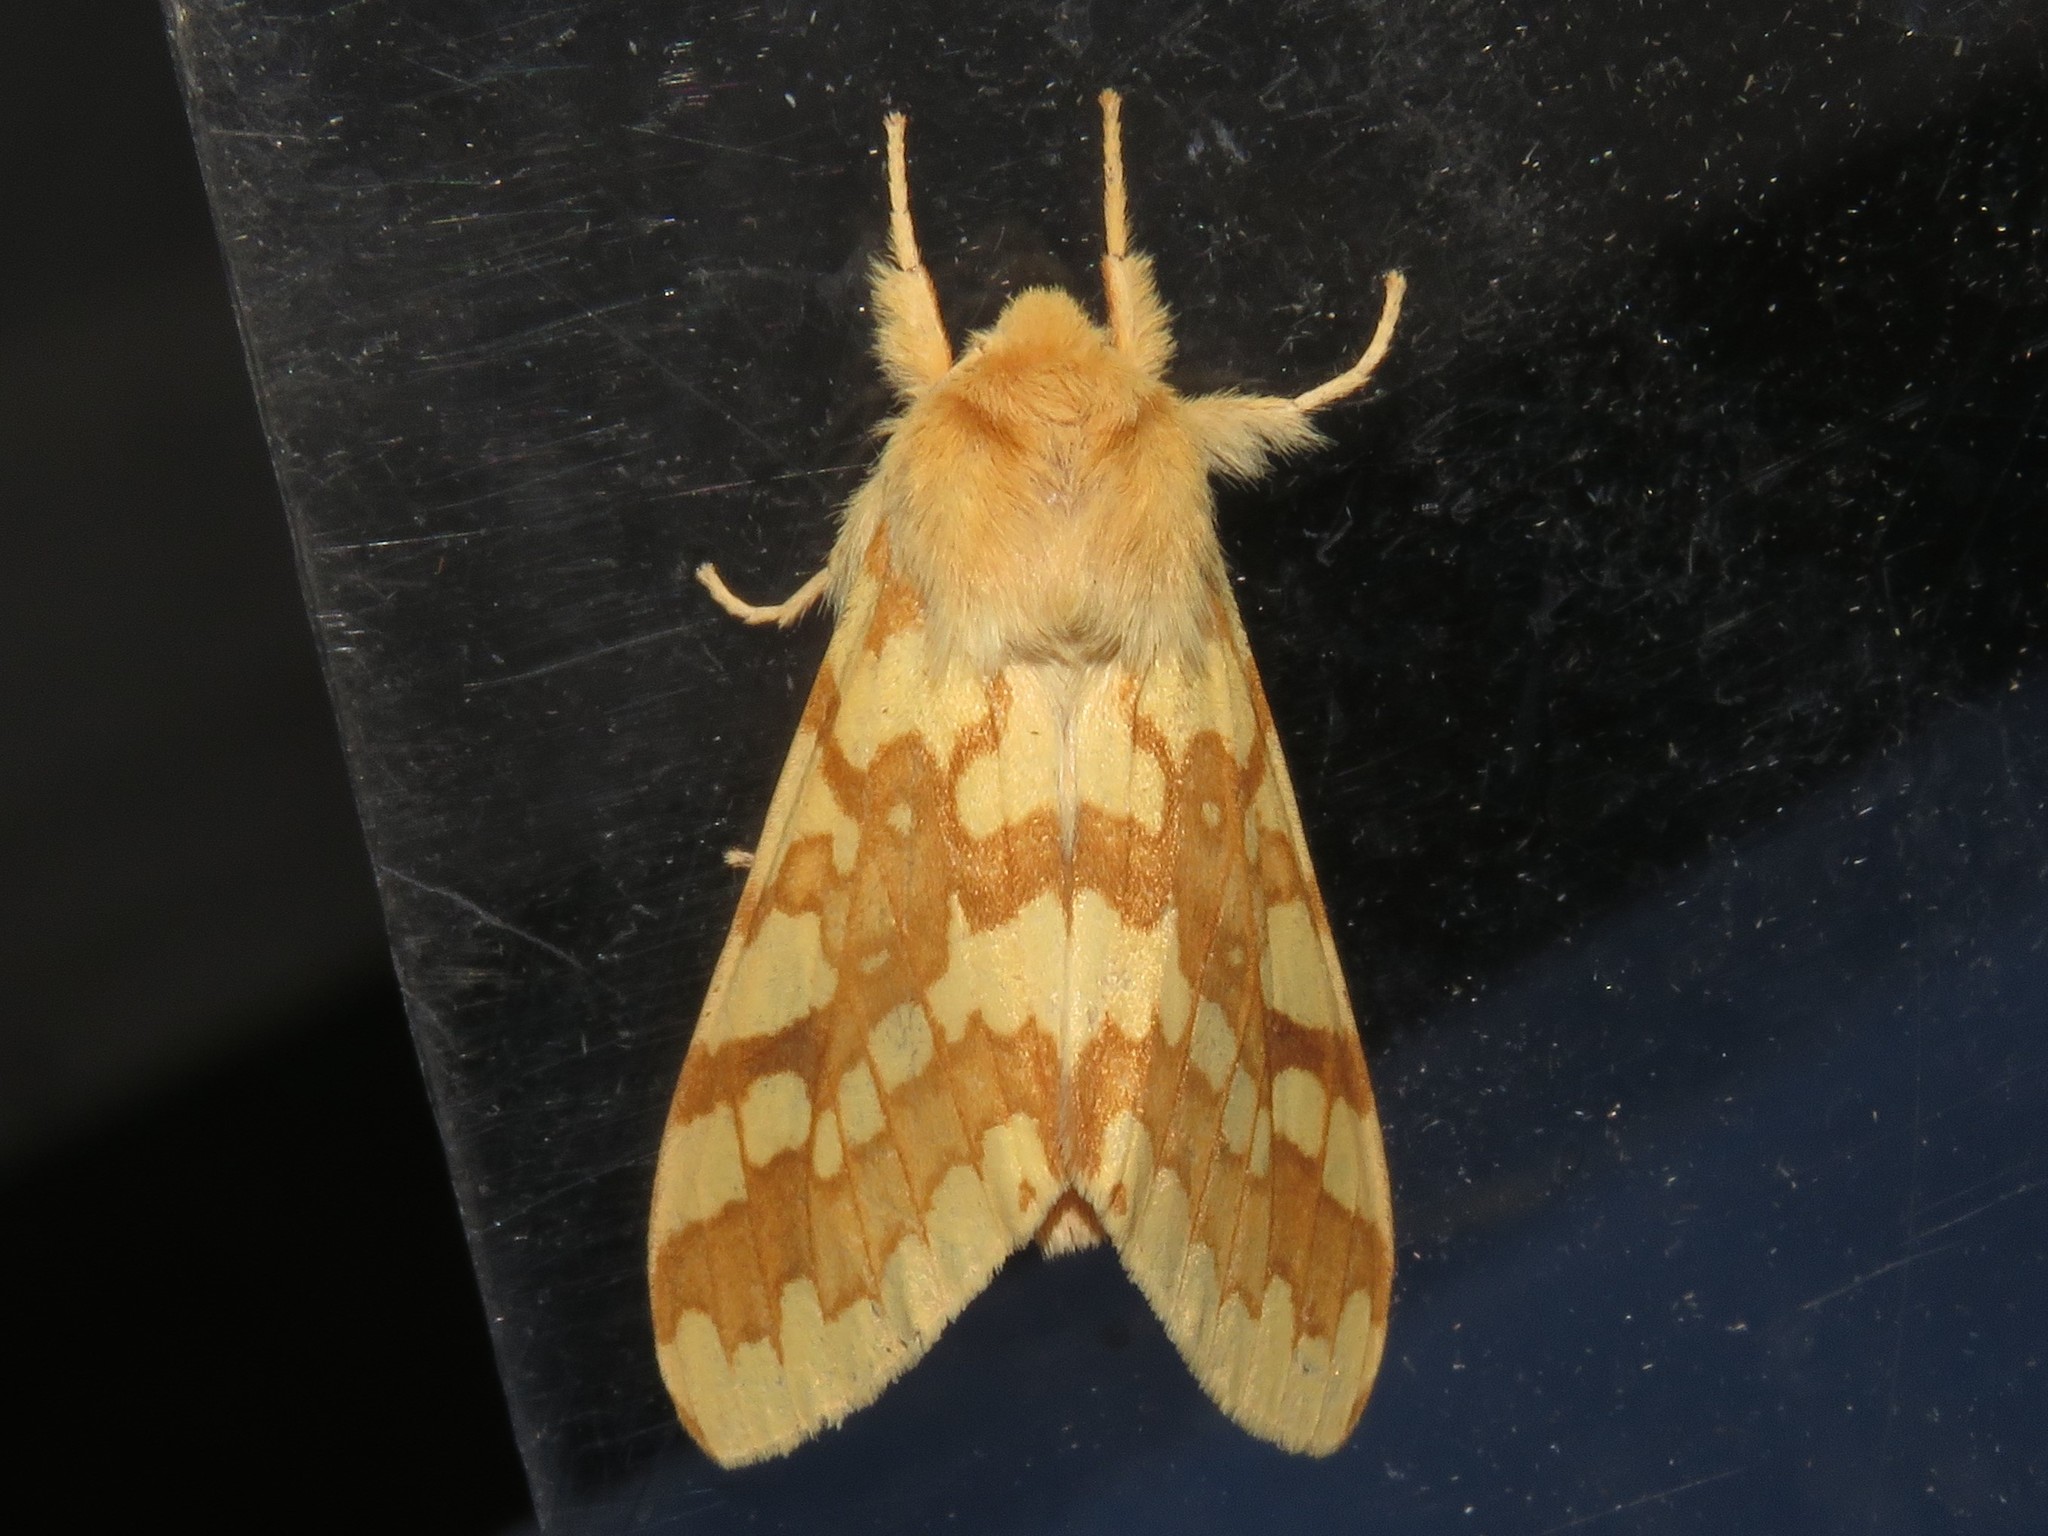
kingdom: Animalia
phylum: Arthropoda
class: Insecta
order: Lepidoptera
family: Erebidae
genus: Lophocampa
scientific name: Lophocampa maculata
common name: Spotted tussock moth
